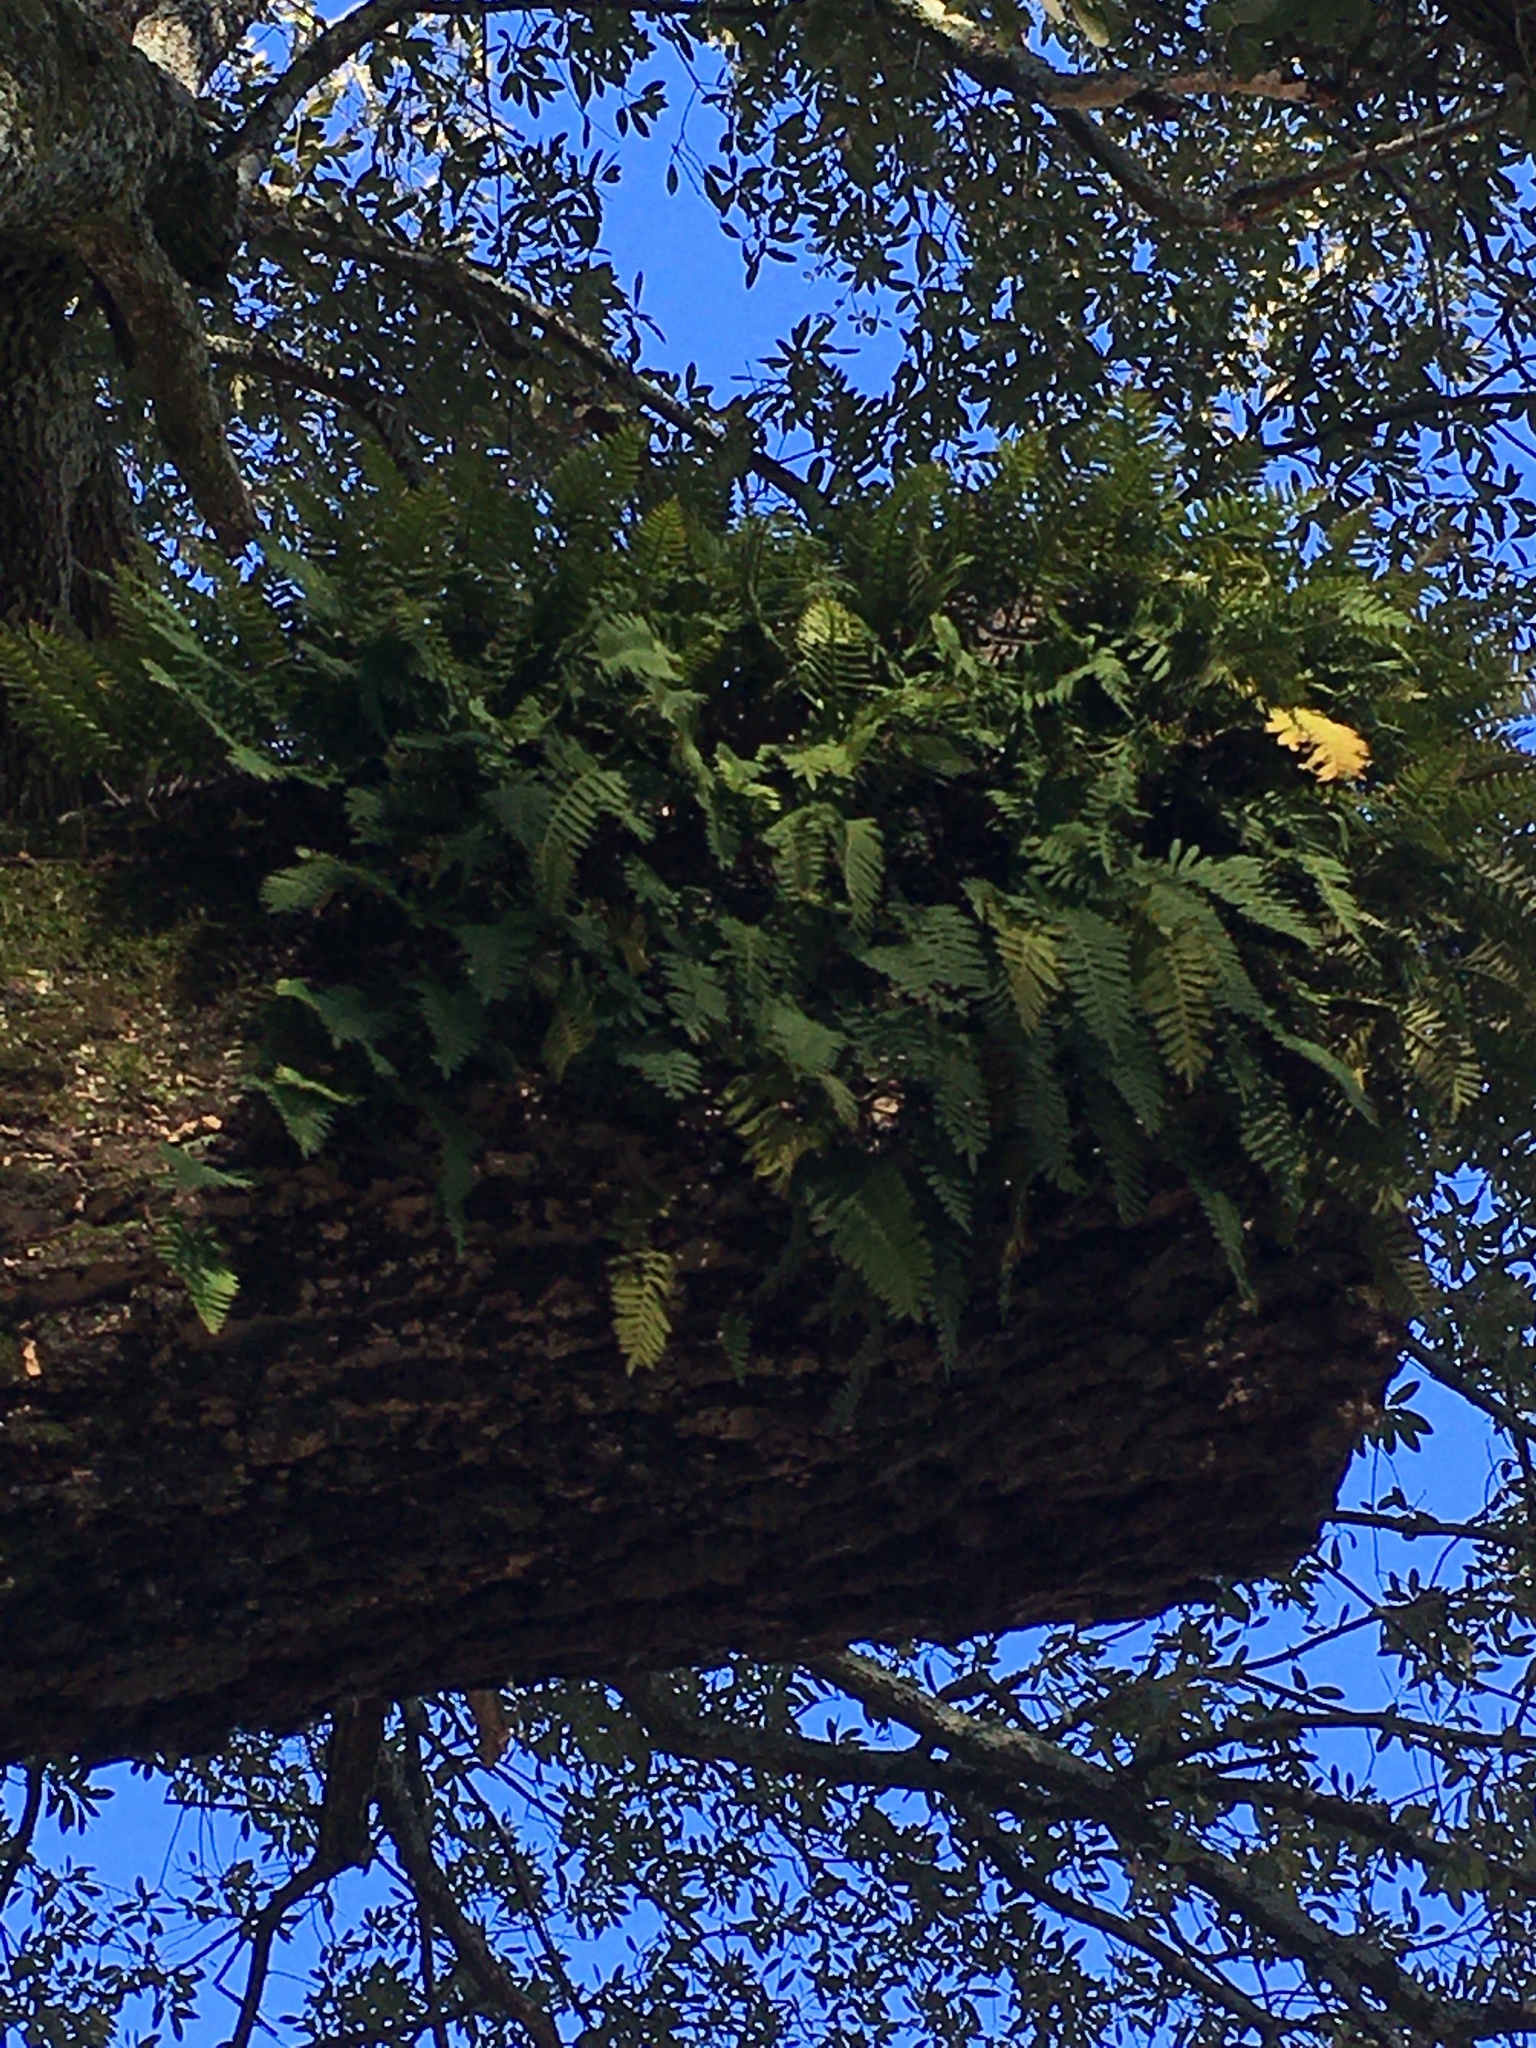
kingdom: Plantae
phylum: Tracheophyta
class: Polypodiopsida
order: Polypodiales
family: Polypodiaceae
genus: Pleopeltis
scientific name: Pleopeltis michauxiana
